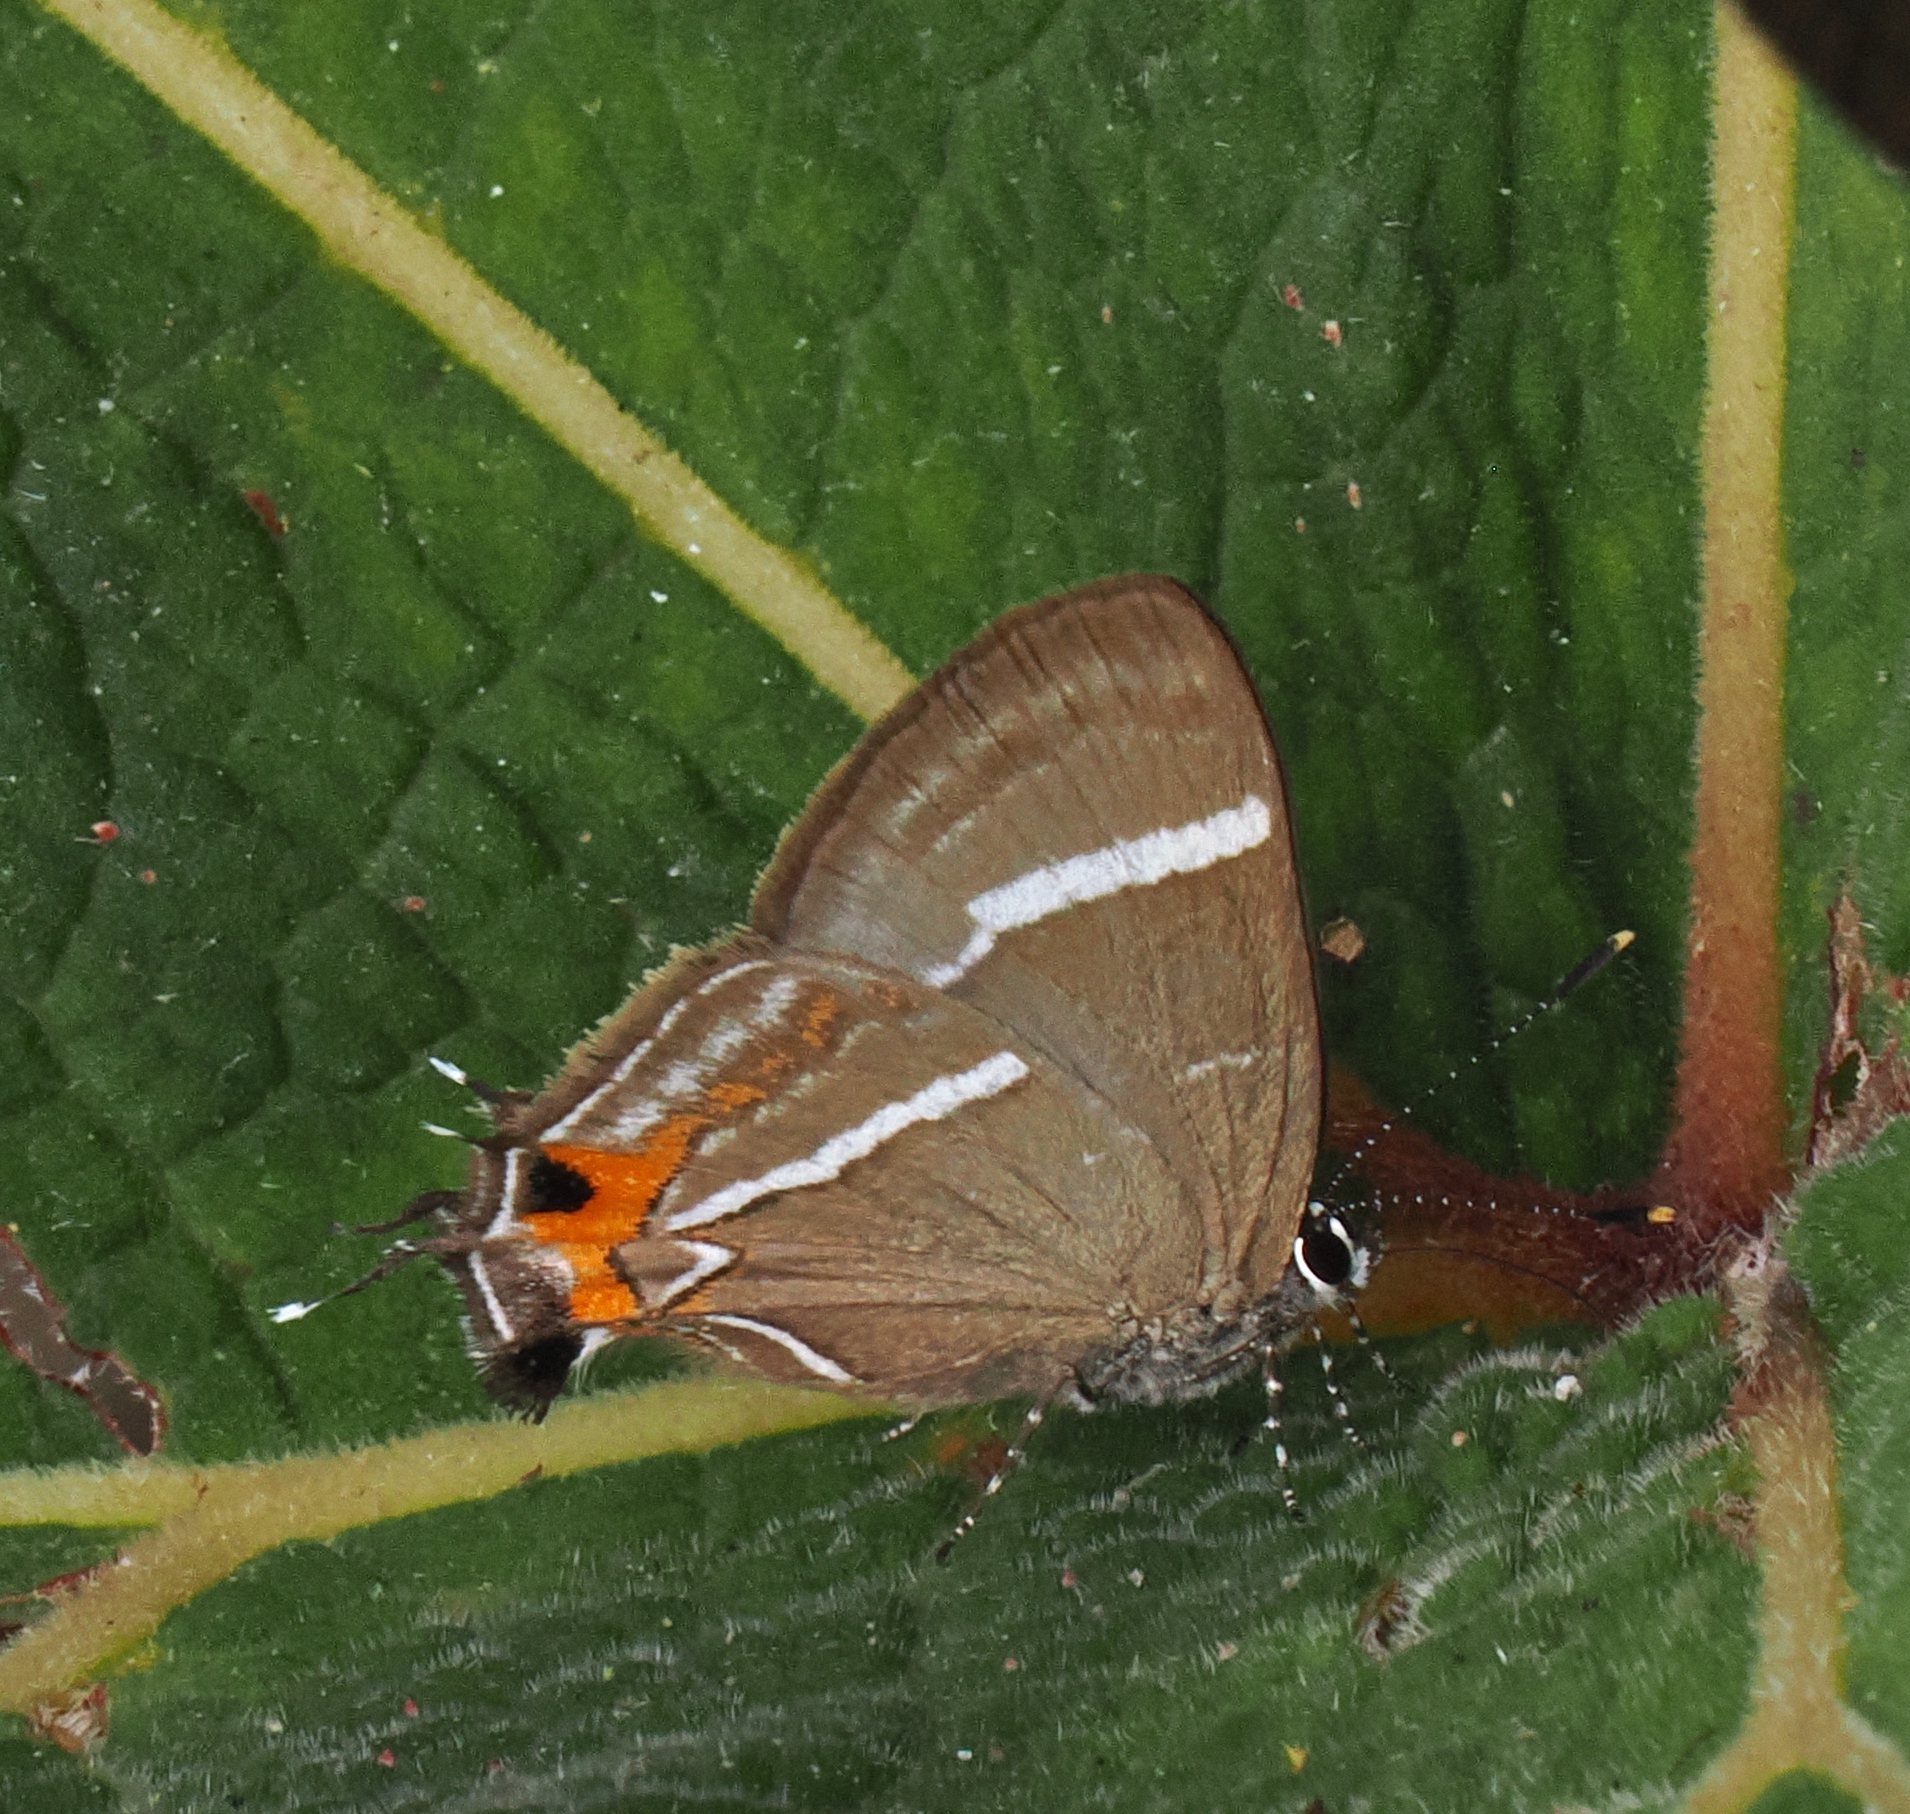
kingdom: Animalia
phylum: Arthropoda
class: Insecta
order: Lepidoptera
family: Lycaenidae
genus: Lamprospilus
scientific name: Lamprospilus draudti
